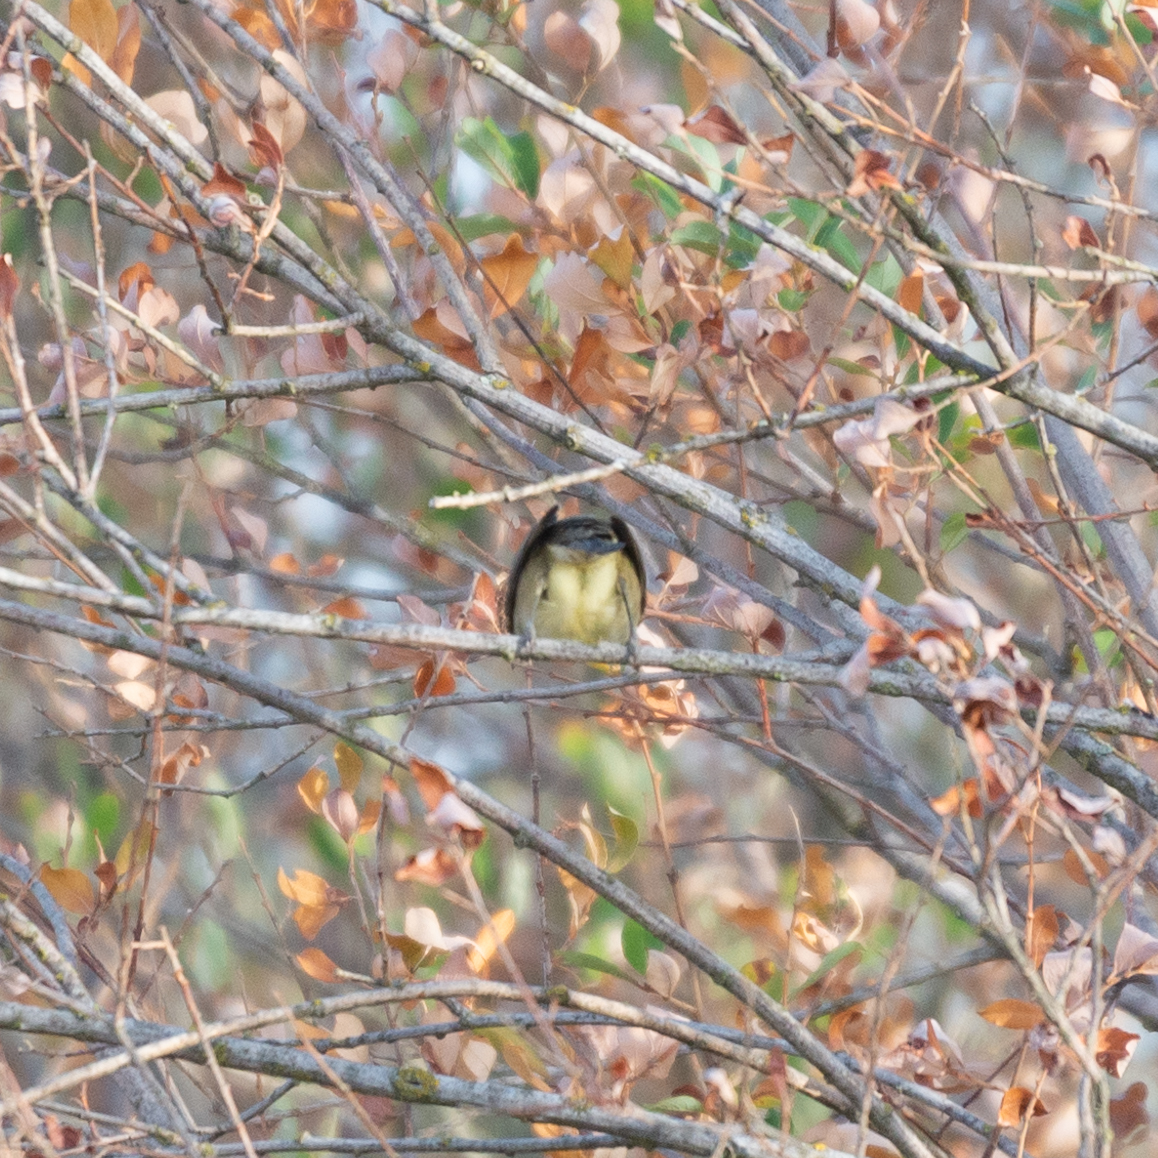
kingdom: Animalia
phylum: Chordata
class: Aves
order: Passeriformes
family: Sylviidae
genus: Sylvia
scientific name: Sylvia atricapilla
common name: Eurasian blackcap
